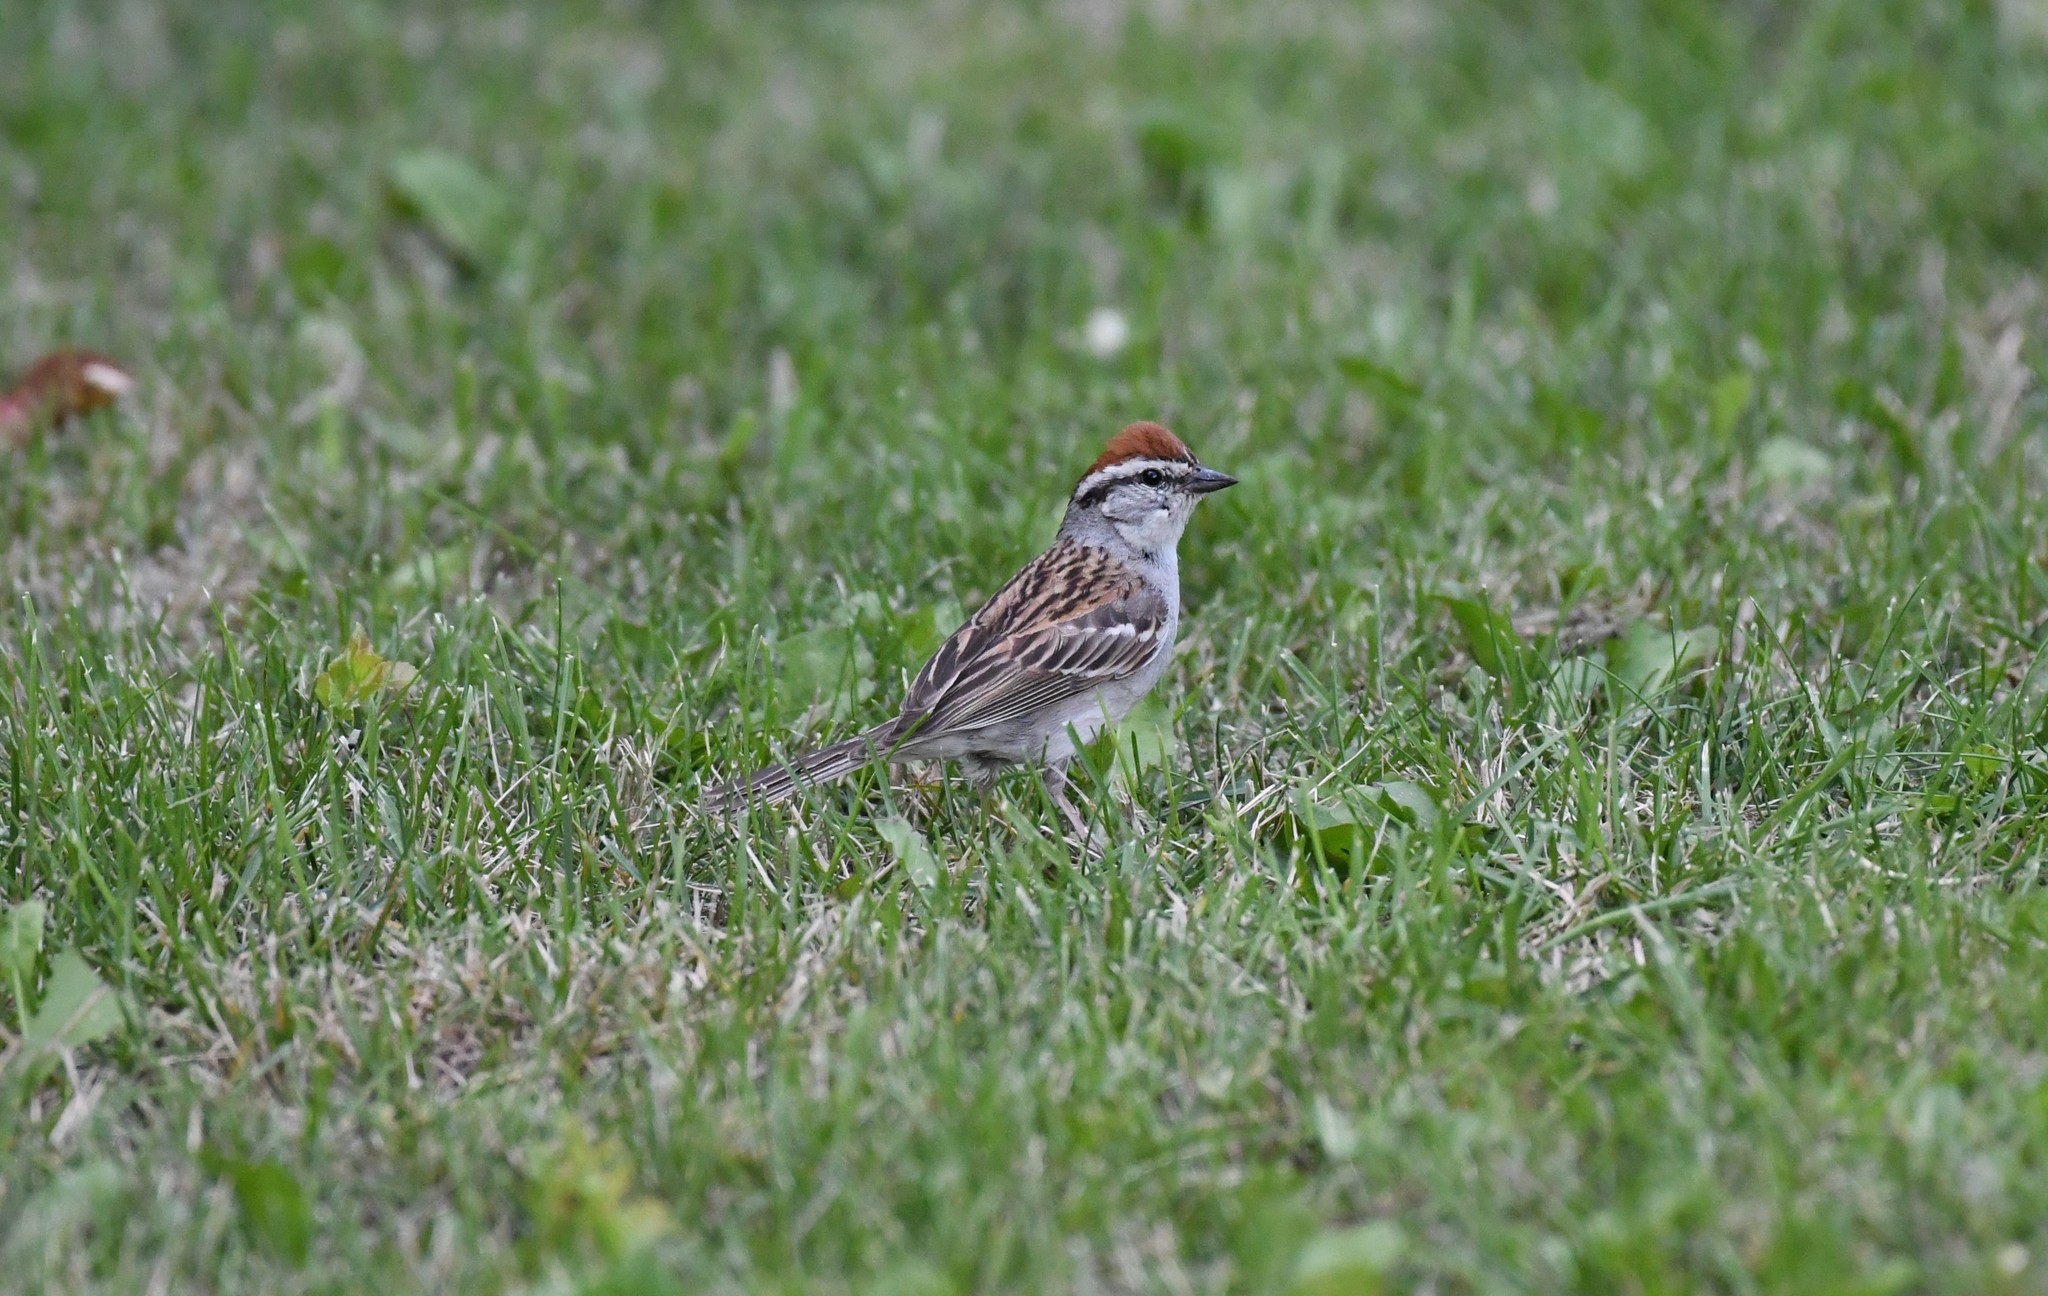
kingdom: Animalia
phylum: Chordata
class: Aves
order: Passeriformes
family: Passerellidae
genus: Spizella
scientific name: Spizella passerina
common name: Chipping sparrow
